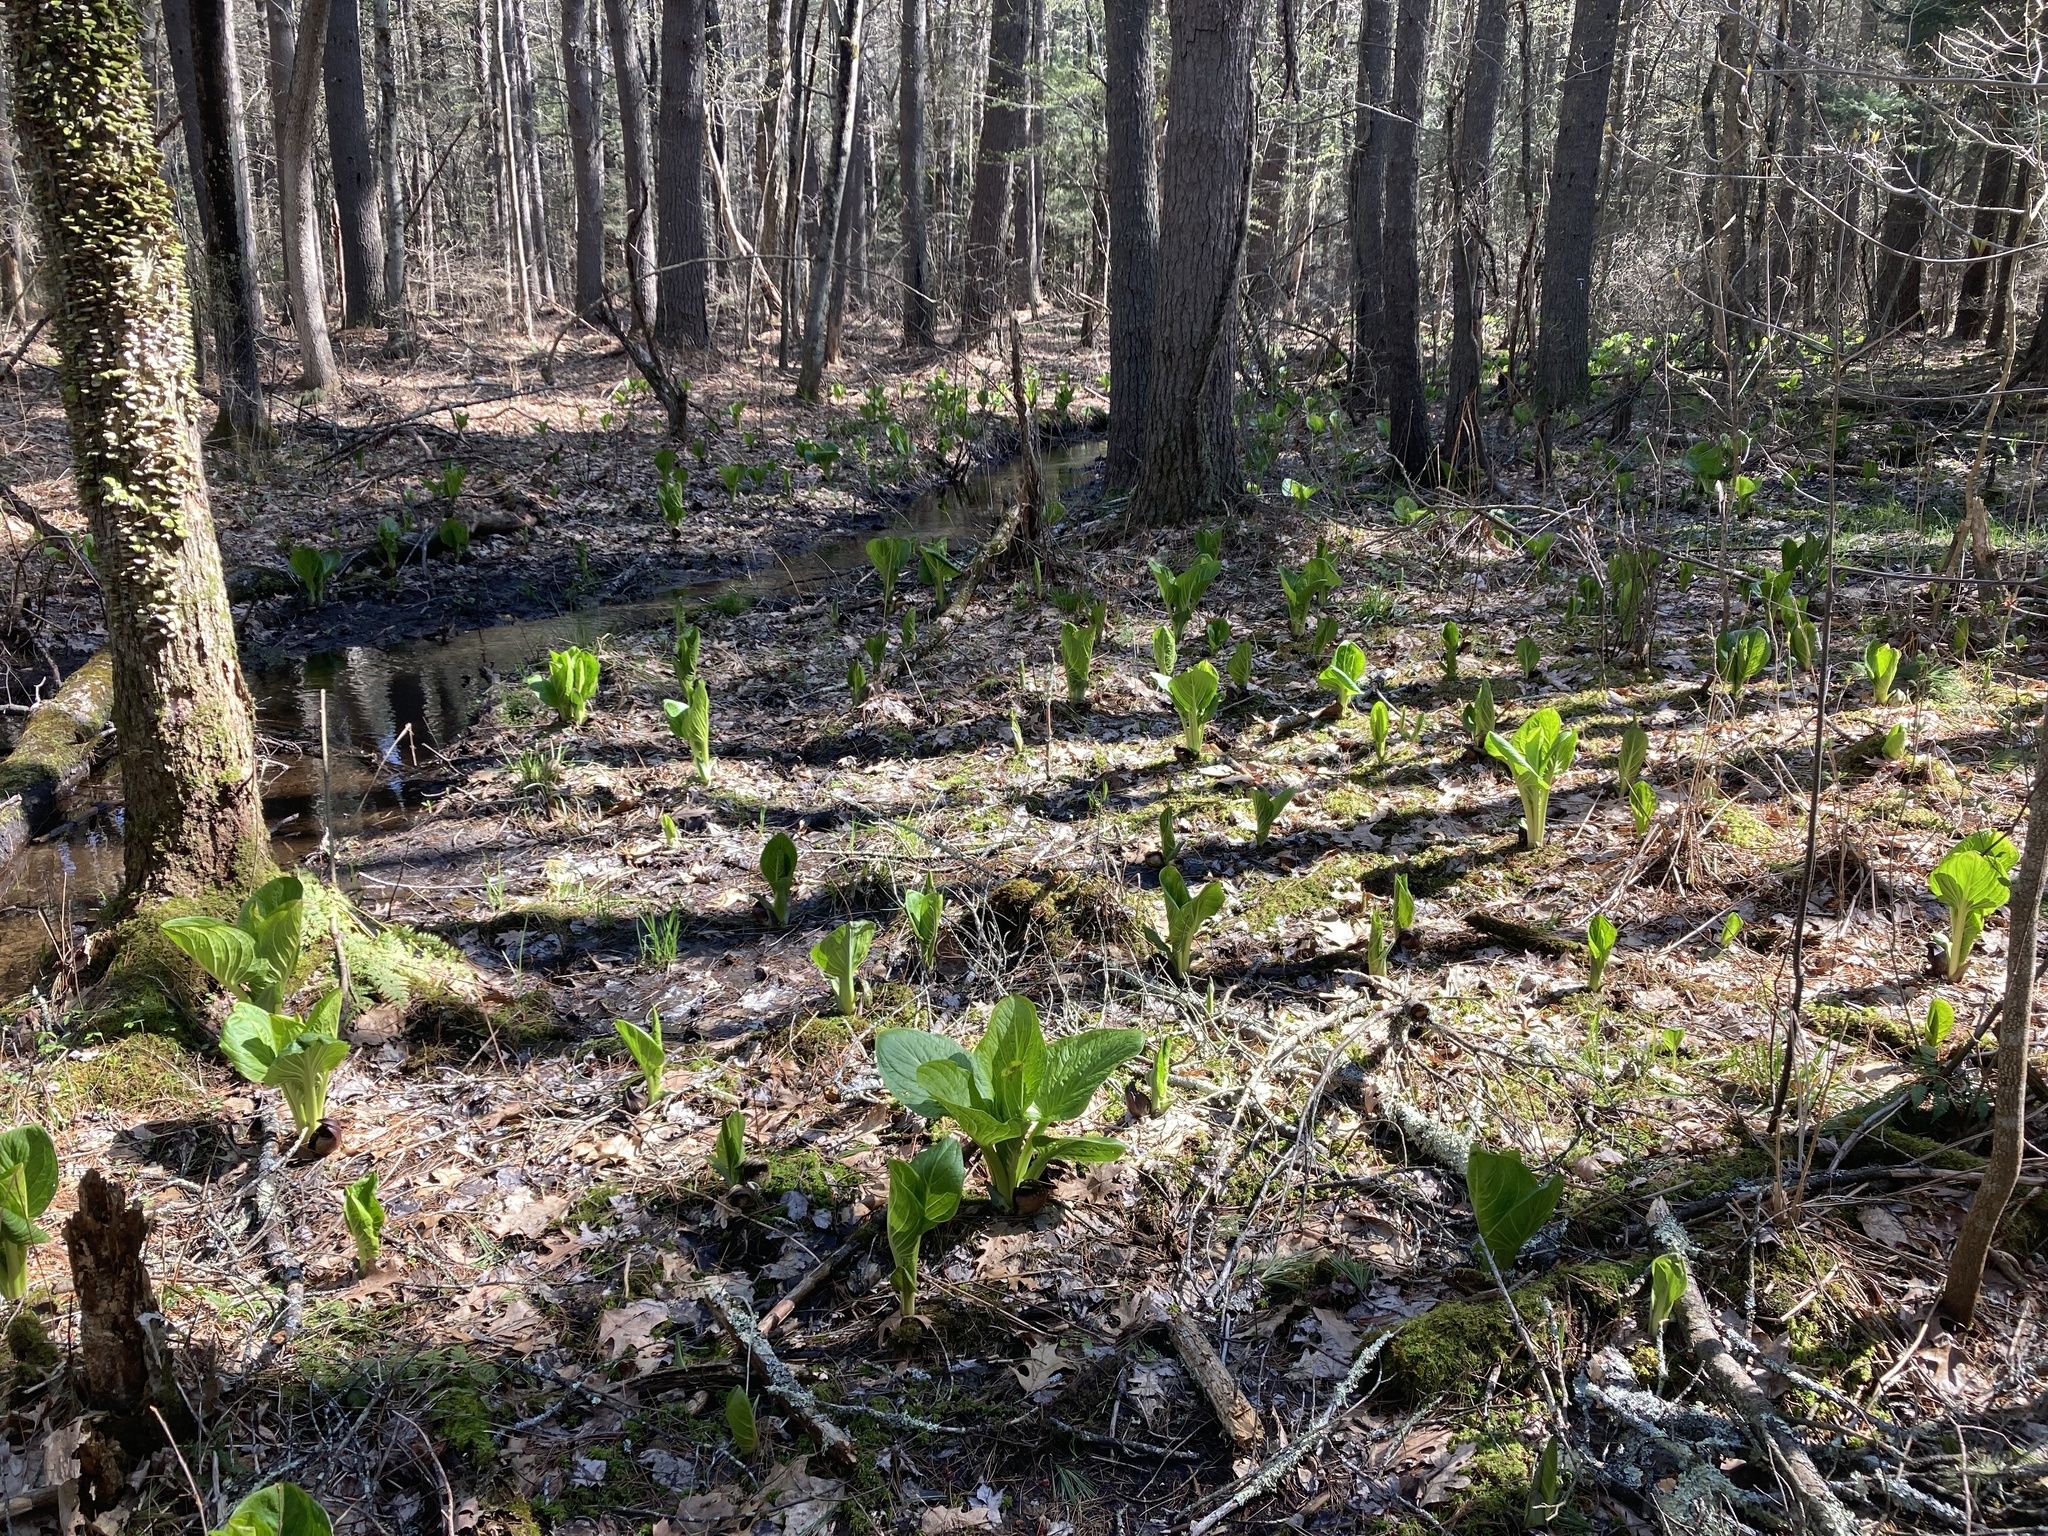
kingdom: Plantae
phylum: Tracheophyta
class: Liliopsida
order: Alismatales
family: Araceae
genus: Symplocarpus
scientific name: Symplocarpus foetidus
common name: Eastern skunk cabbage
